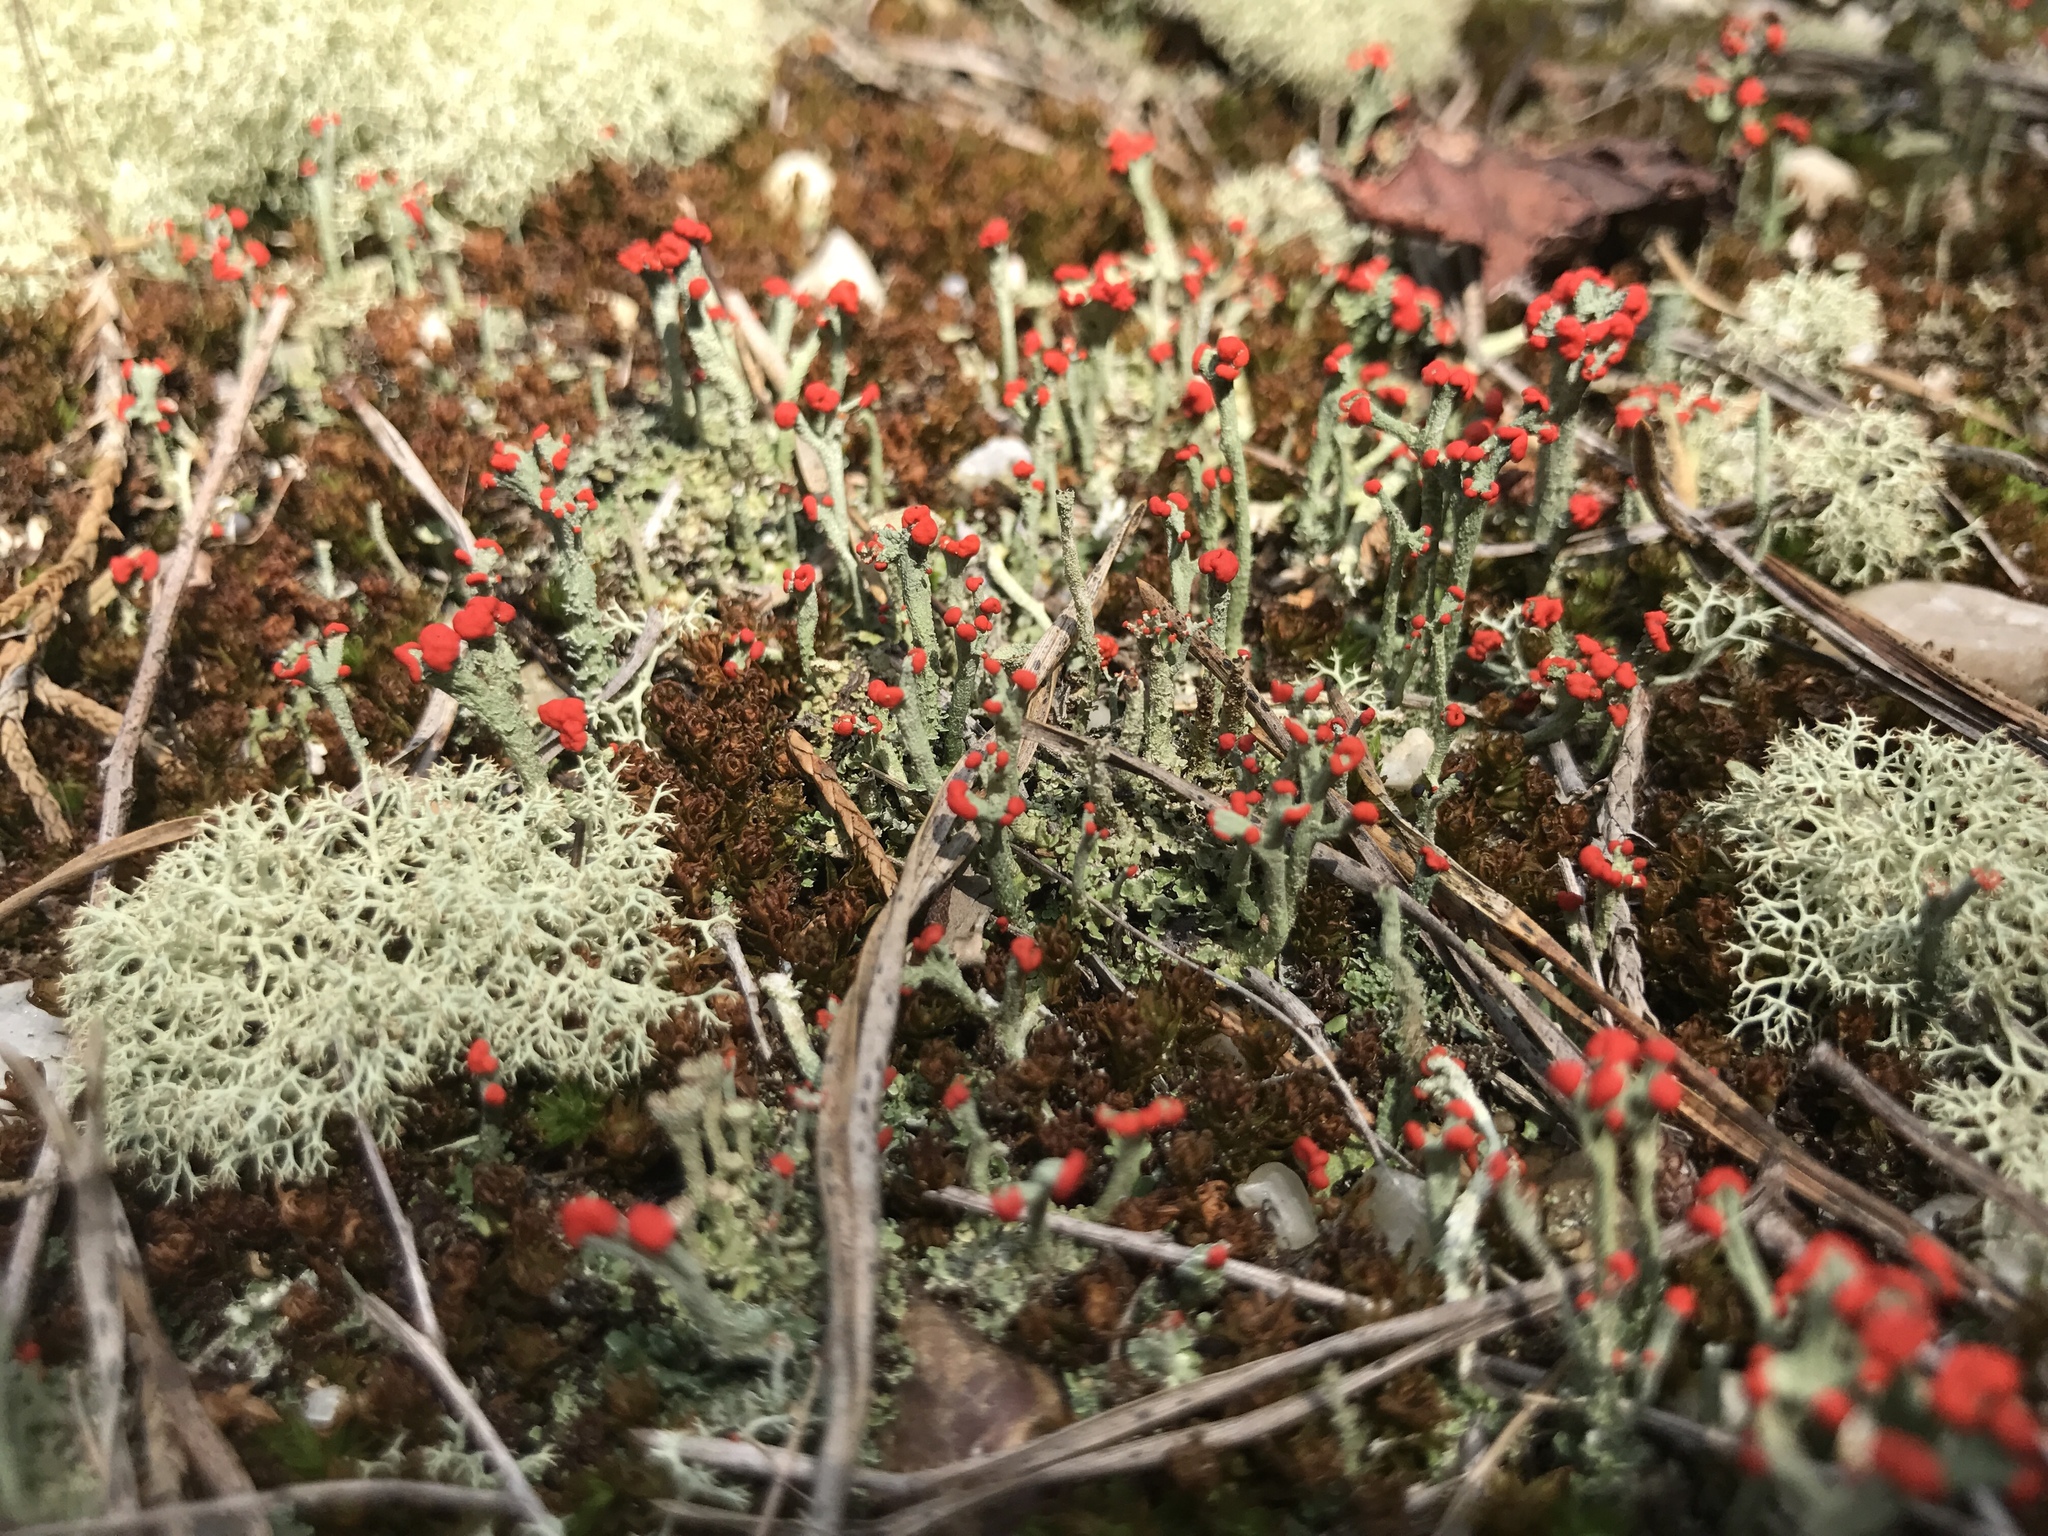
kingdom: Fungi
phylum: Ascomycota
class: Lecanoromycetes
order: Lecanorales
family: Cladoniaceae
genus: Cladonia
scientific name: Cladonia cristatella
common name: British soldier lichen
